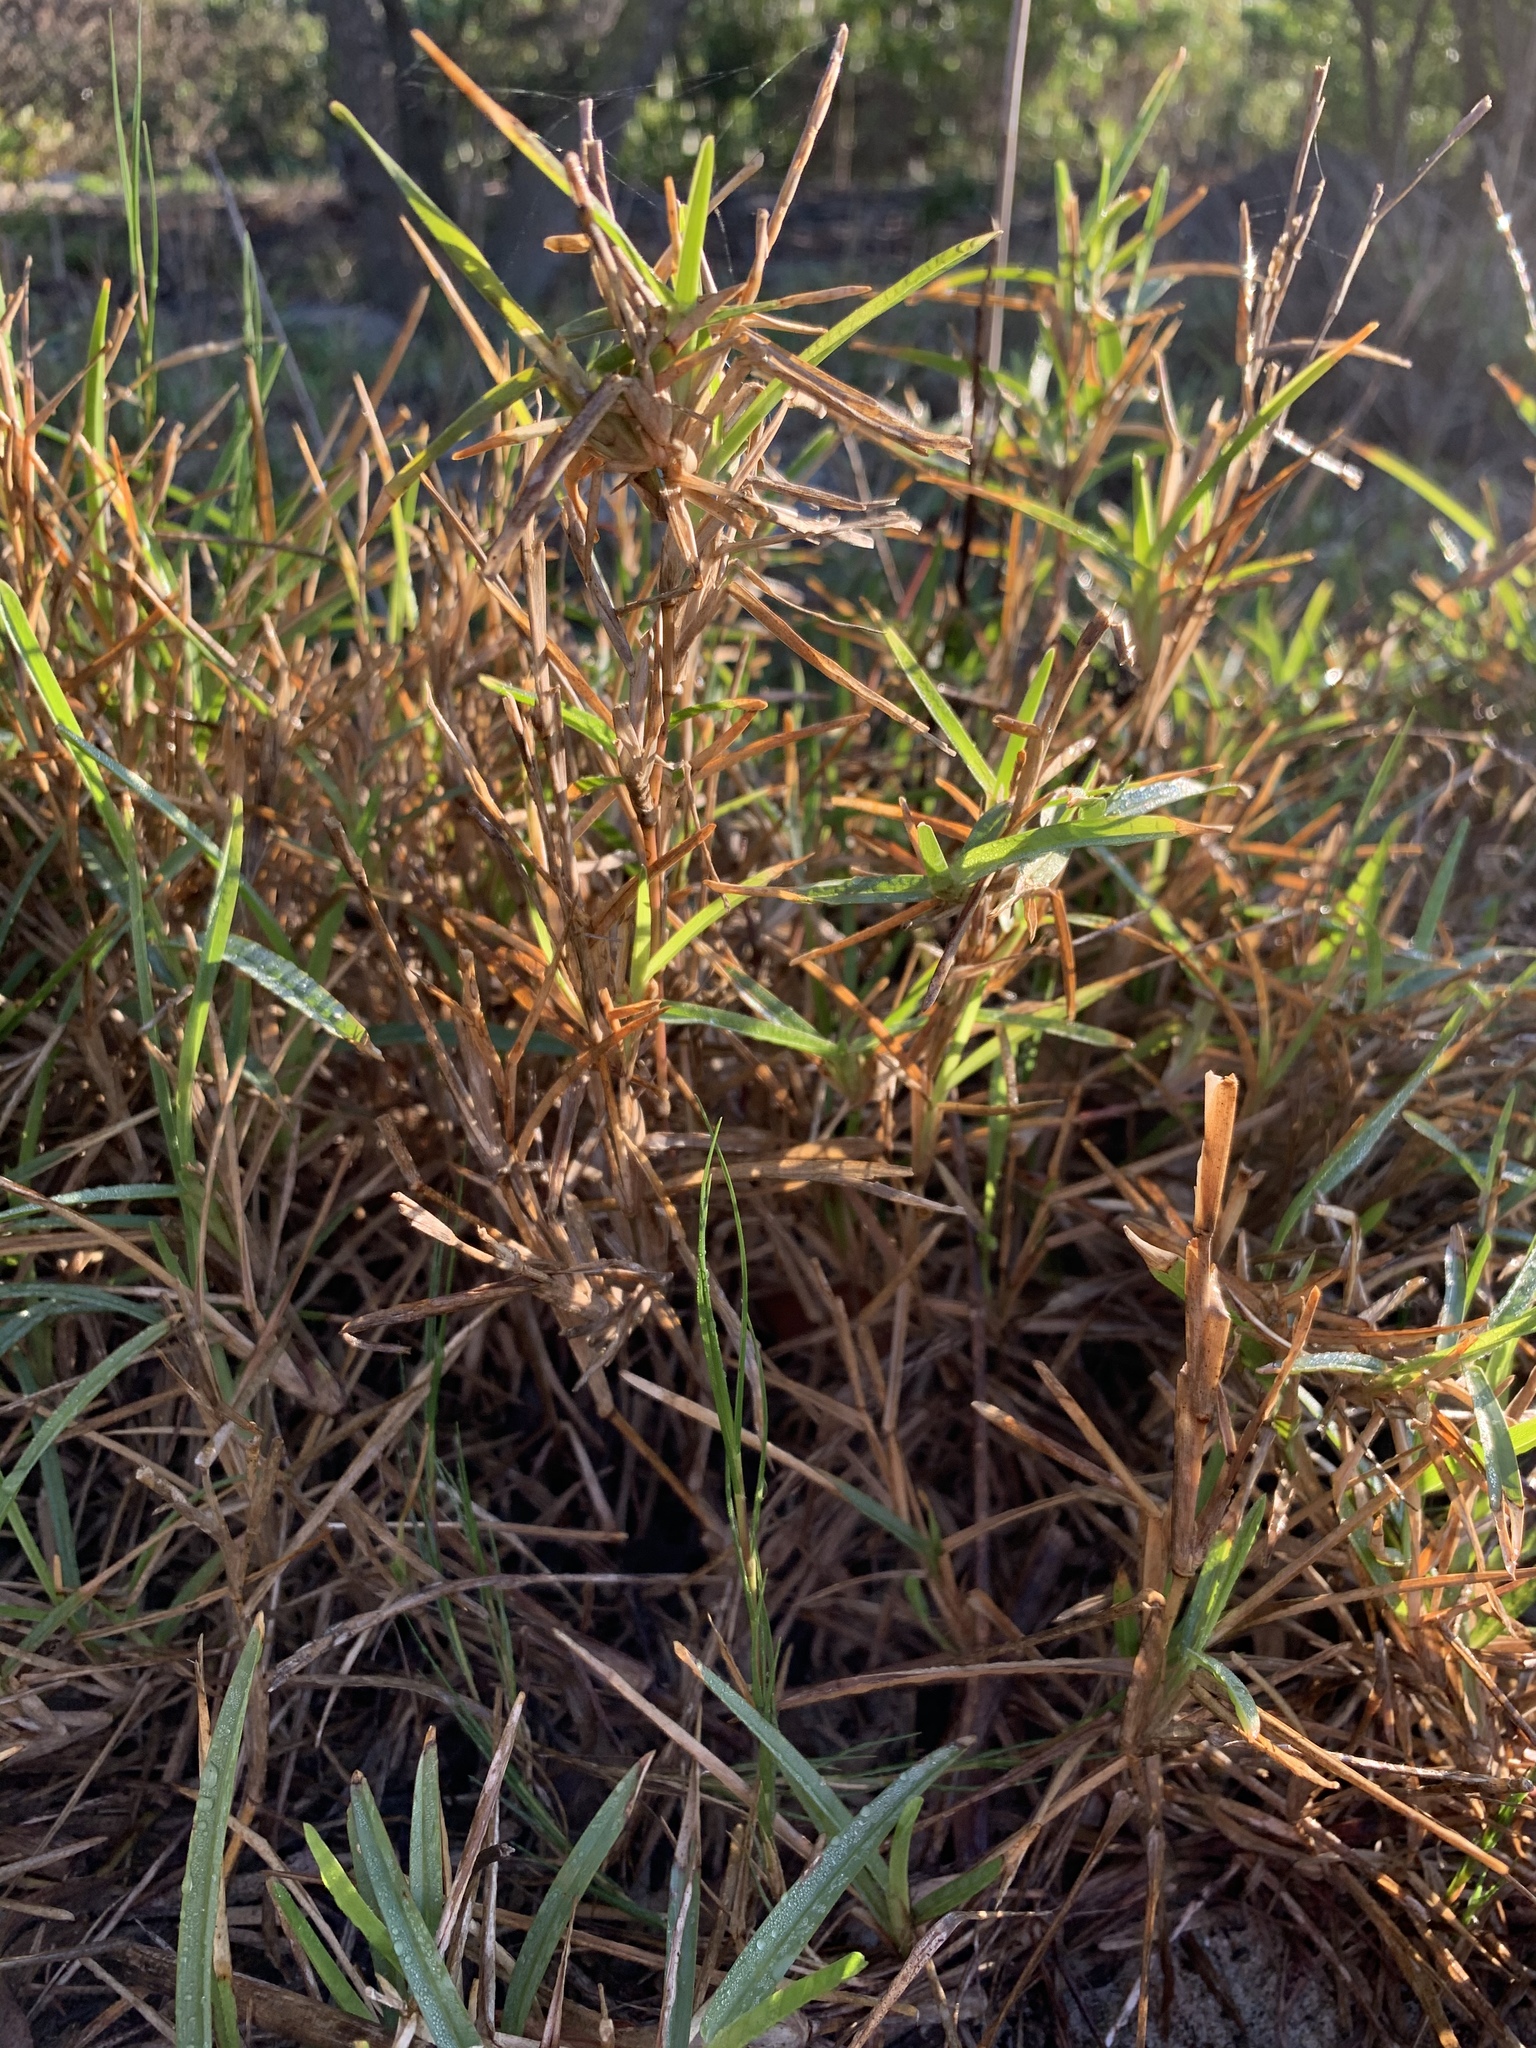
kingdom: Plantae
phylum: Tracheophyta
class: Liliopsida
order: Poales
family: Poaceae
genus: Stenotaphrum
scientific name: Stenotaphrum secundatum
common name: St. augustine grass
